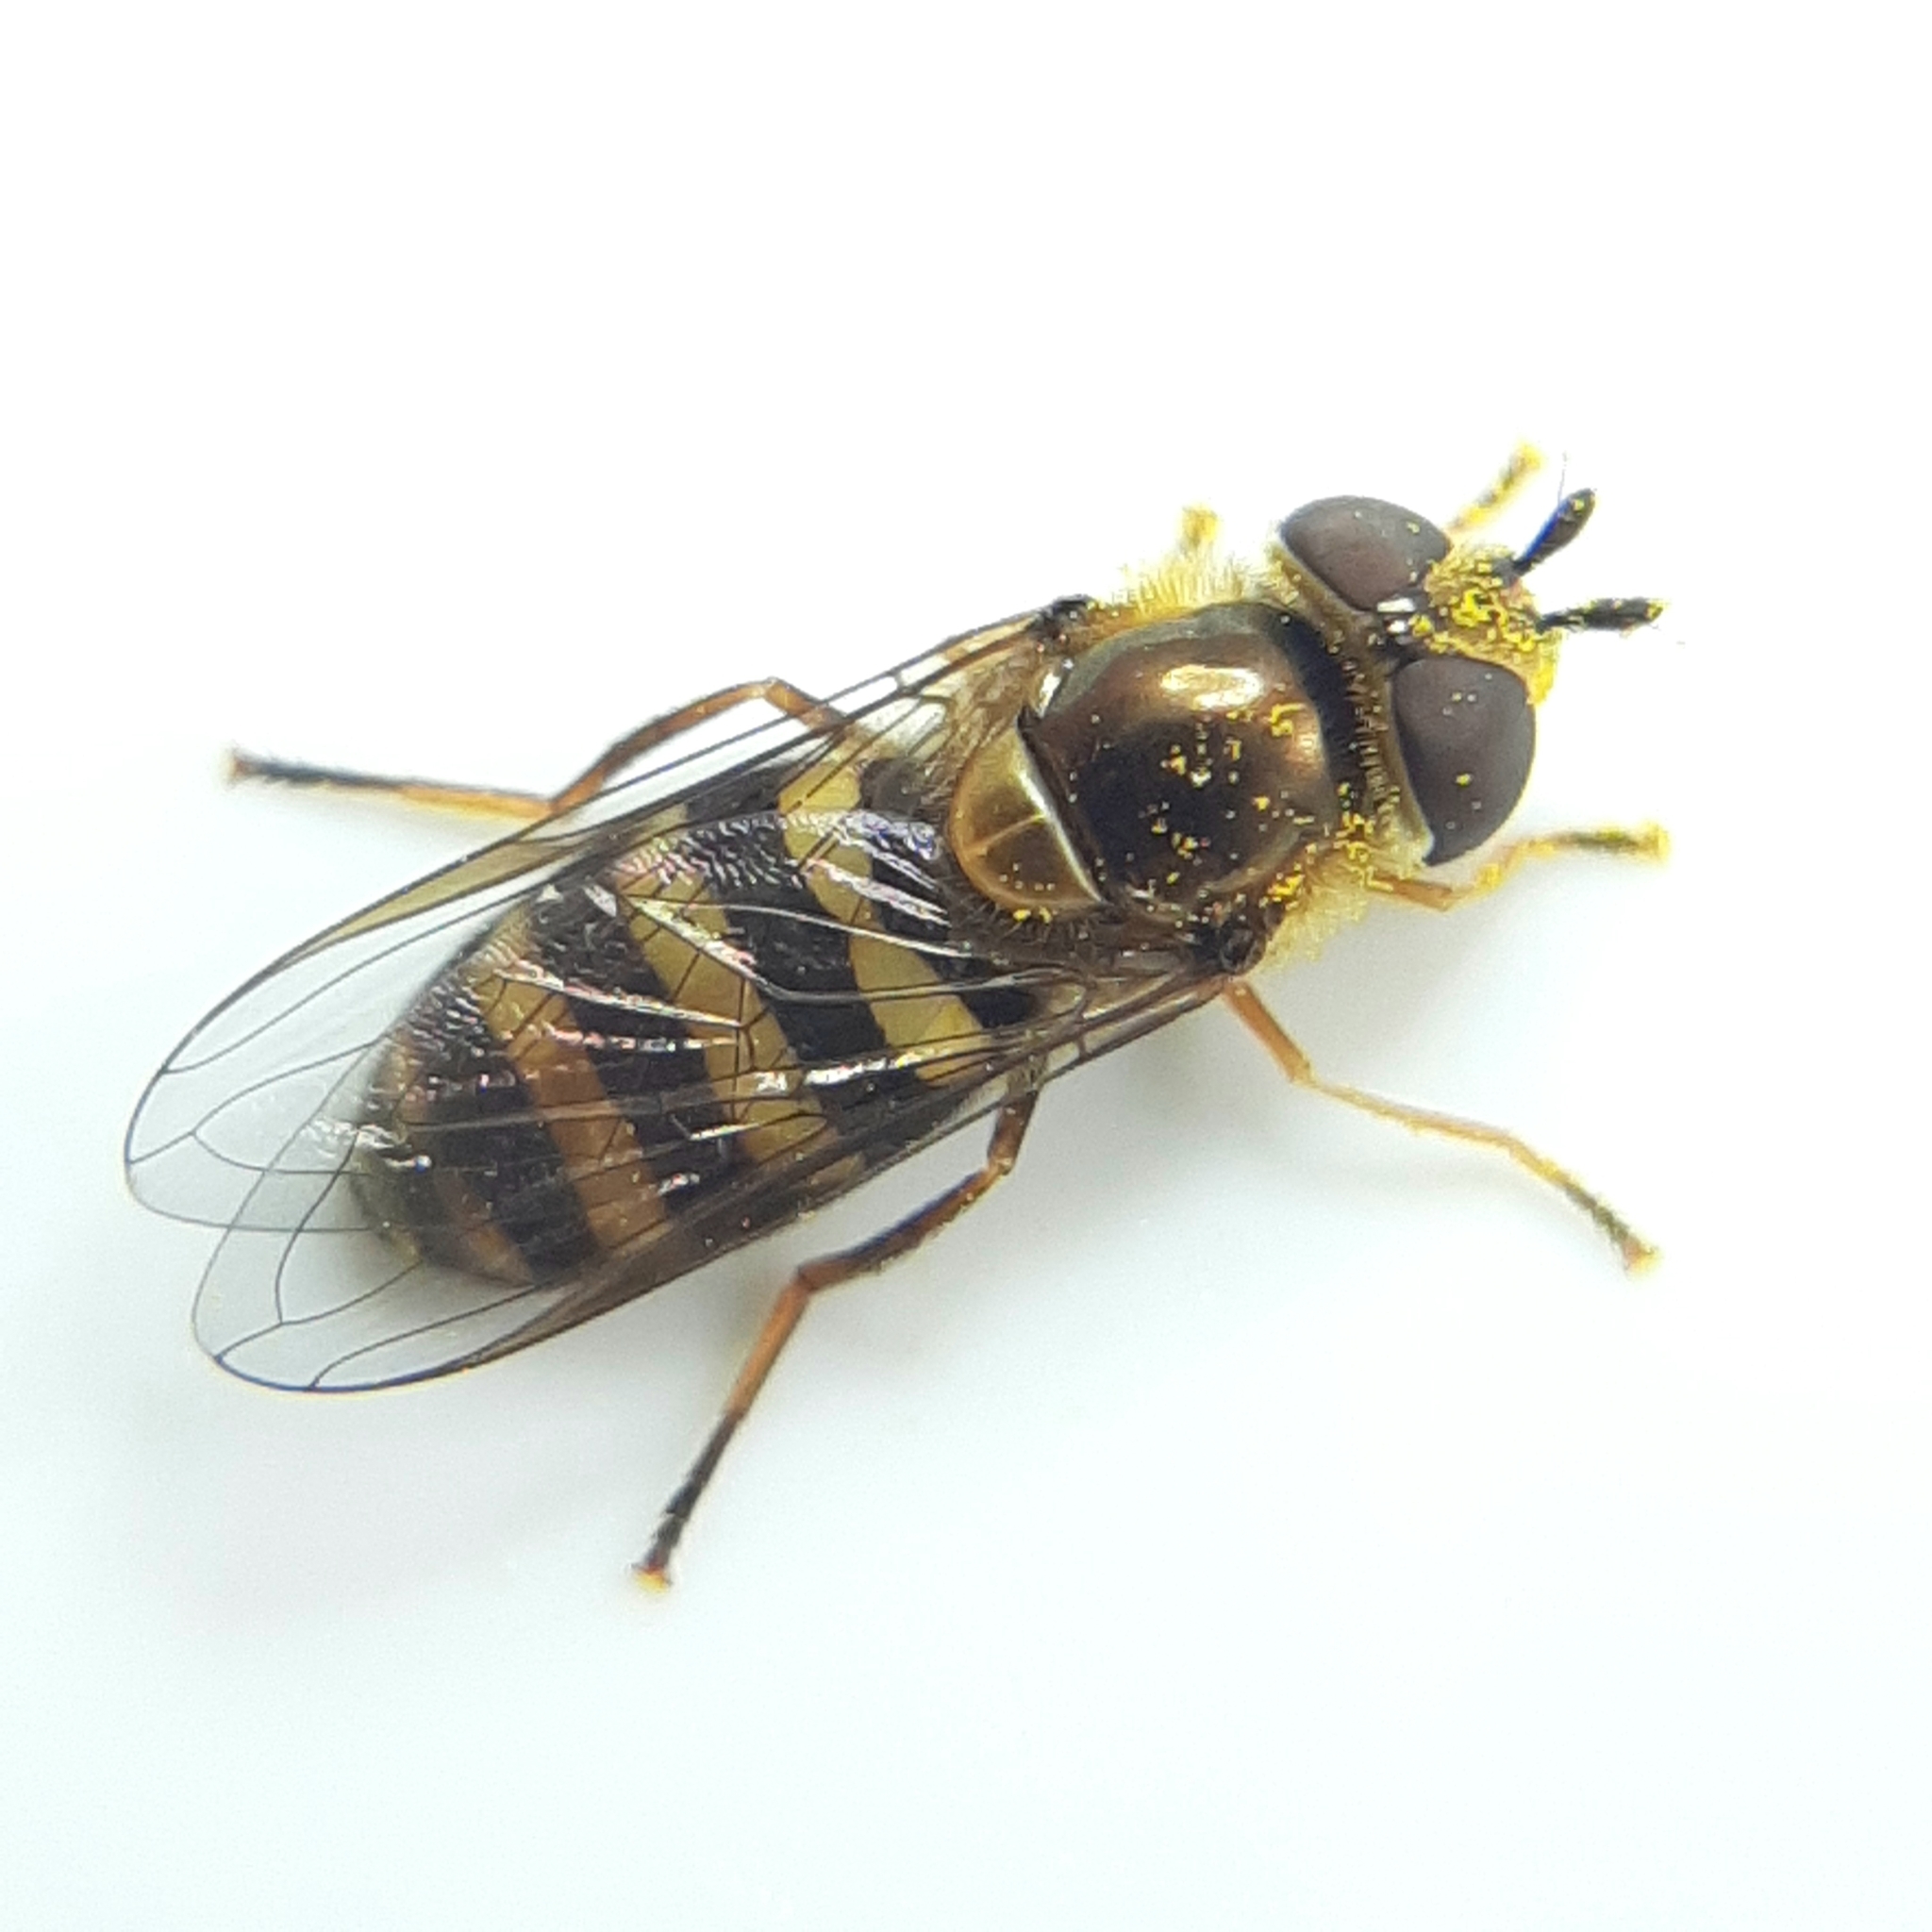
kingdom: Animalia
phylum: Arthropoda
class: Insecta
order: Diptera
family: Syrphidae
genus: Eupeodes
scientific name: Eupeodes
